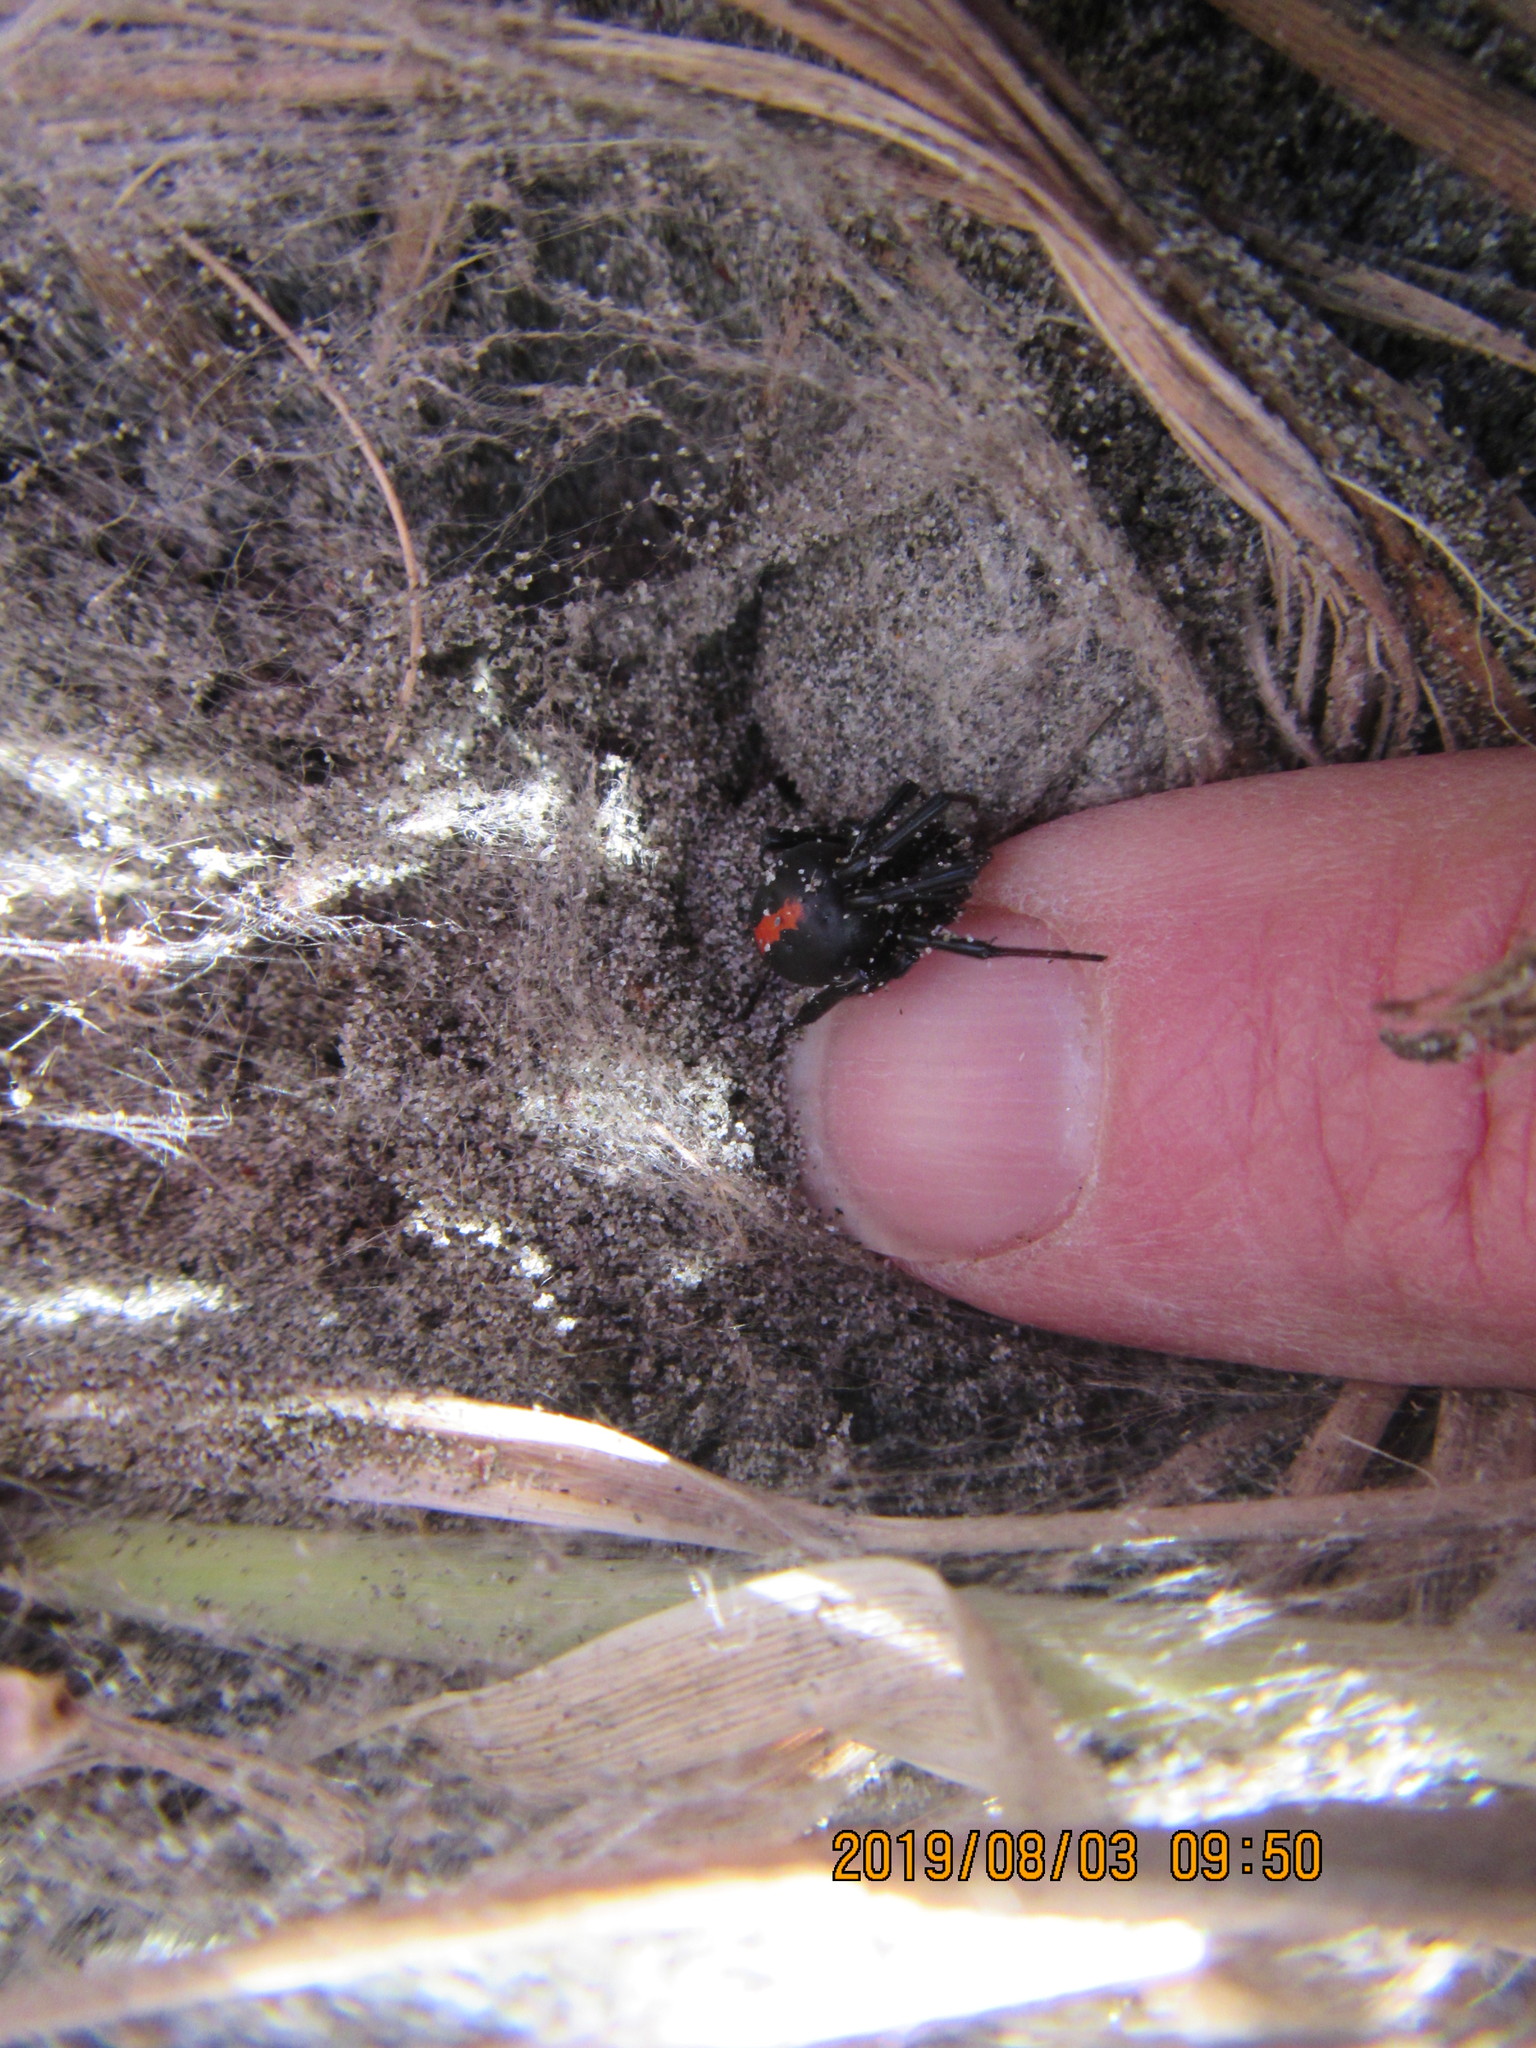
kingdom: Animalia
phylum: Arthropoda
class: Arachnida
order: Araneae
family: Theridiidae
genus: Latrodectus
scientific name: Latrodectus katipo
